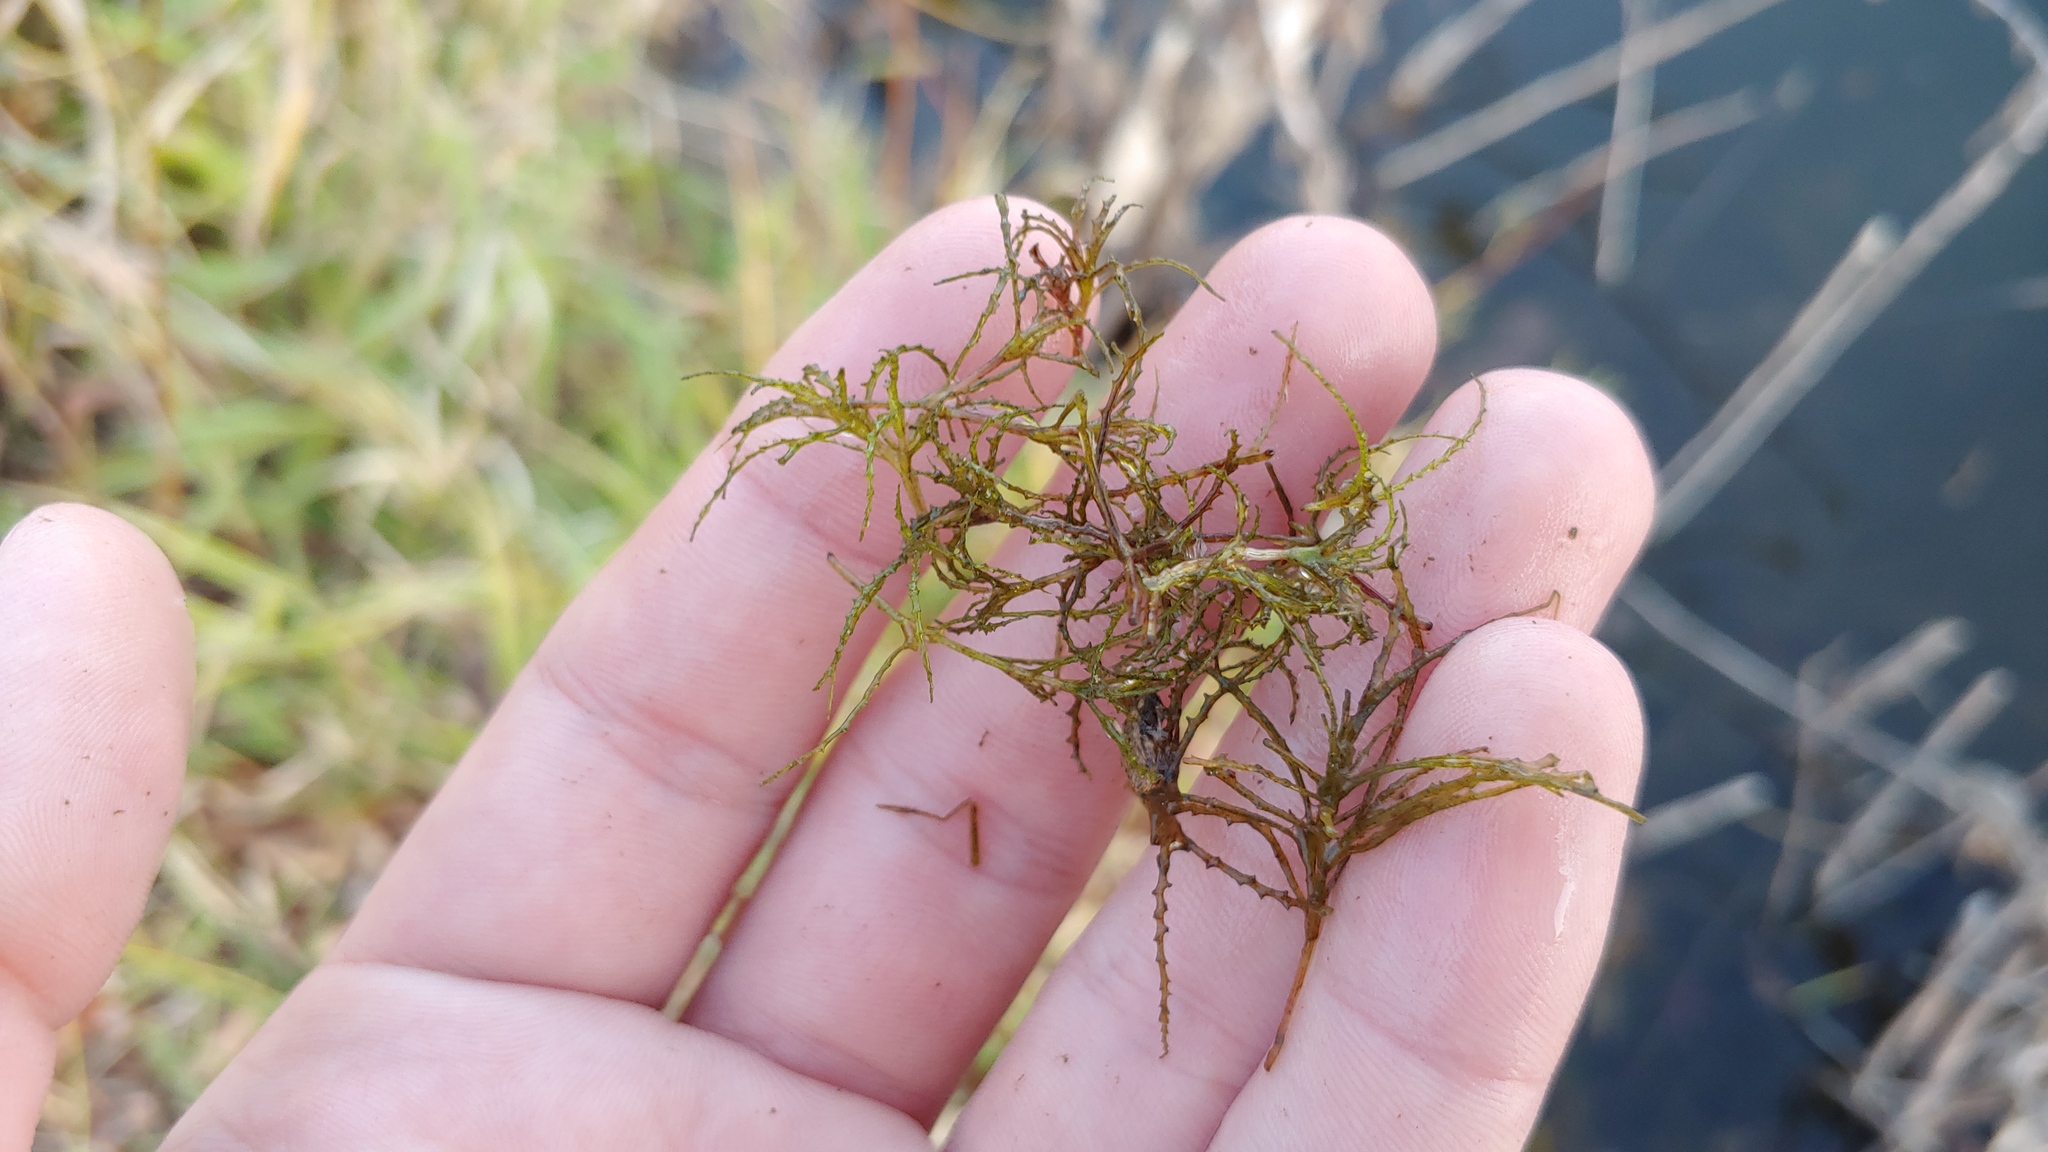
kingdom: Plantae
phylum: Tracheophyta
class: Liliopsida
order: Alismatales
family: Hydrocharitaceae
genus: Najas
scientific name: Najas minor
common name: Brittle naiad
